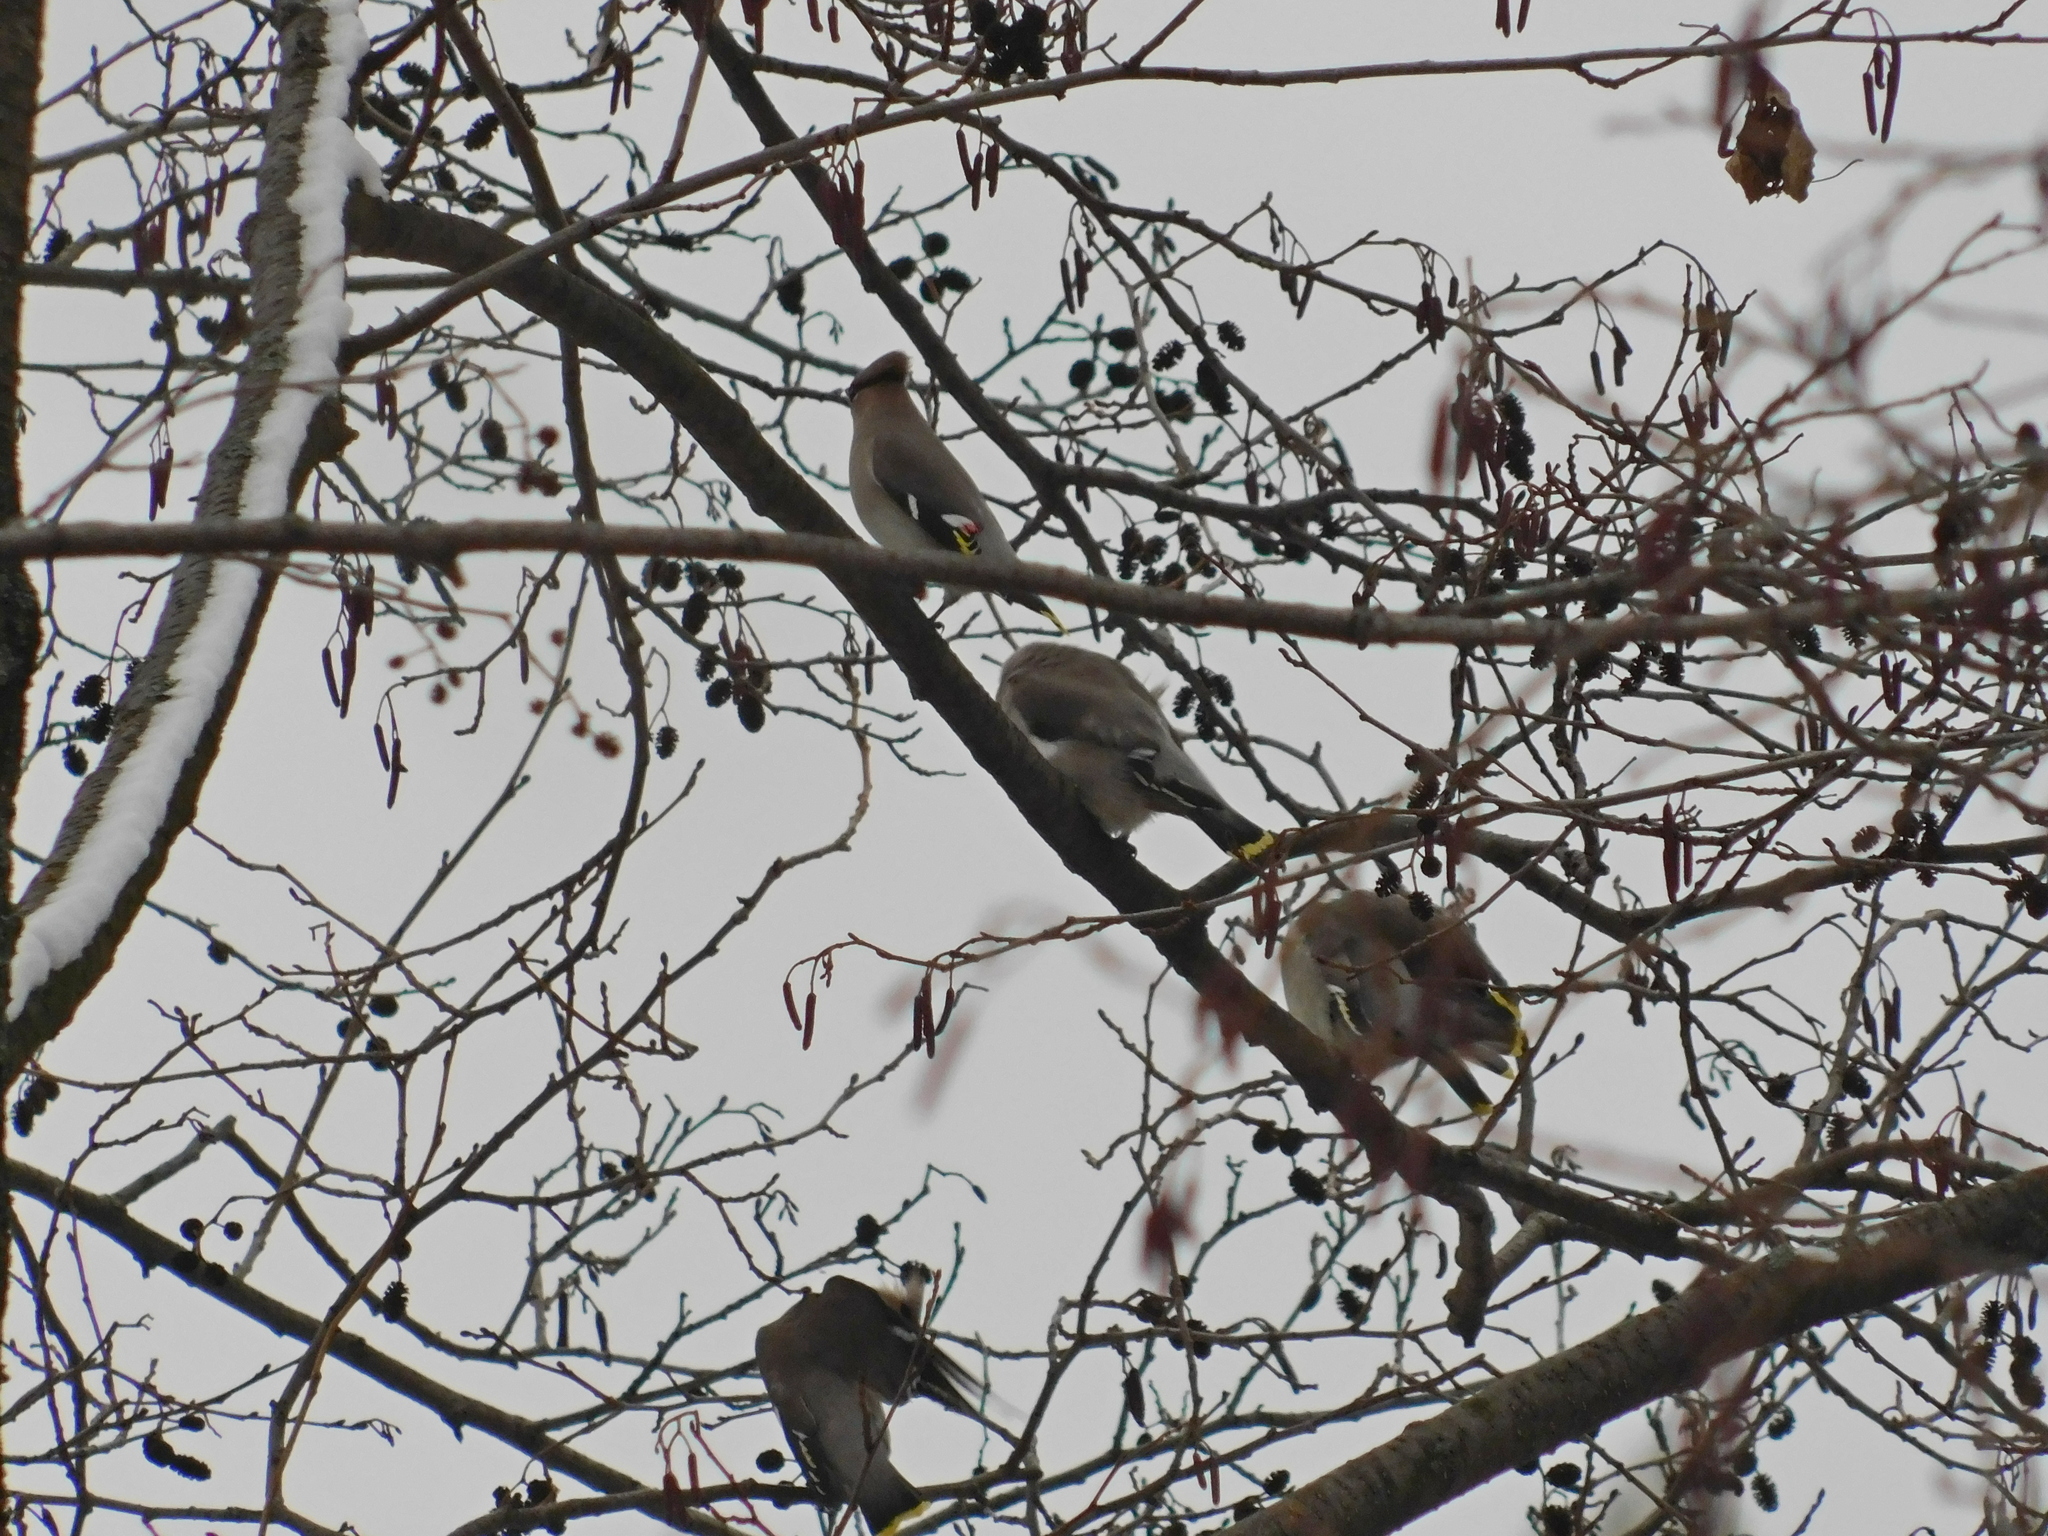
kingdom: Animalia
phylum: Chordata
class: Aves
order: Passeriformes
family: Bombycillidae
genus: Bombycilla
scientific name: Bombycilla garrulus
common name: Bohemian waxwing
